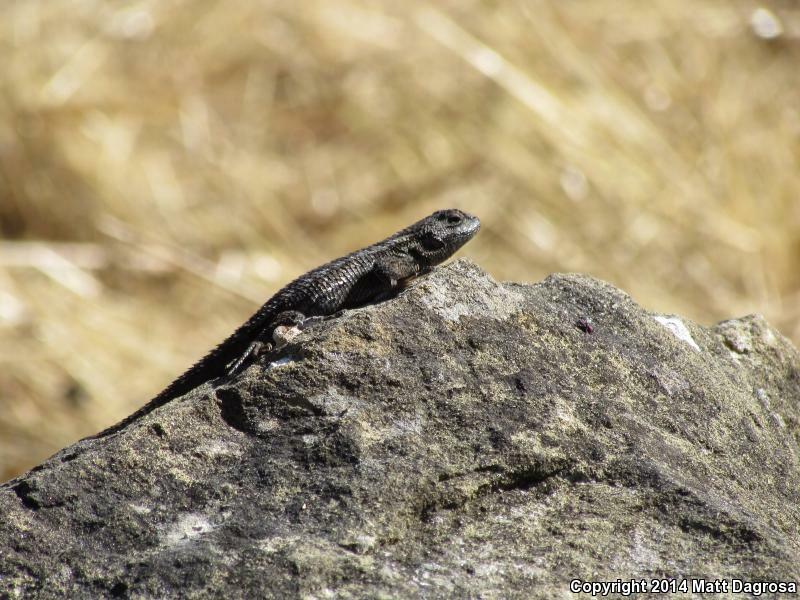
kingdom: Animalia
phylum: Chordata
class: Squamata
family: Phrynosomatidae
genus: Sceloporus
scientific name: Sceloporus occidentalis
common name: Western fence lizard
